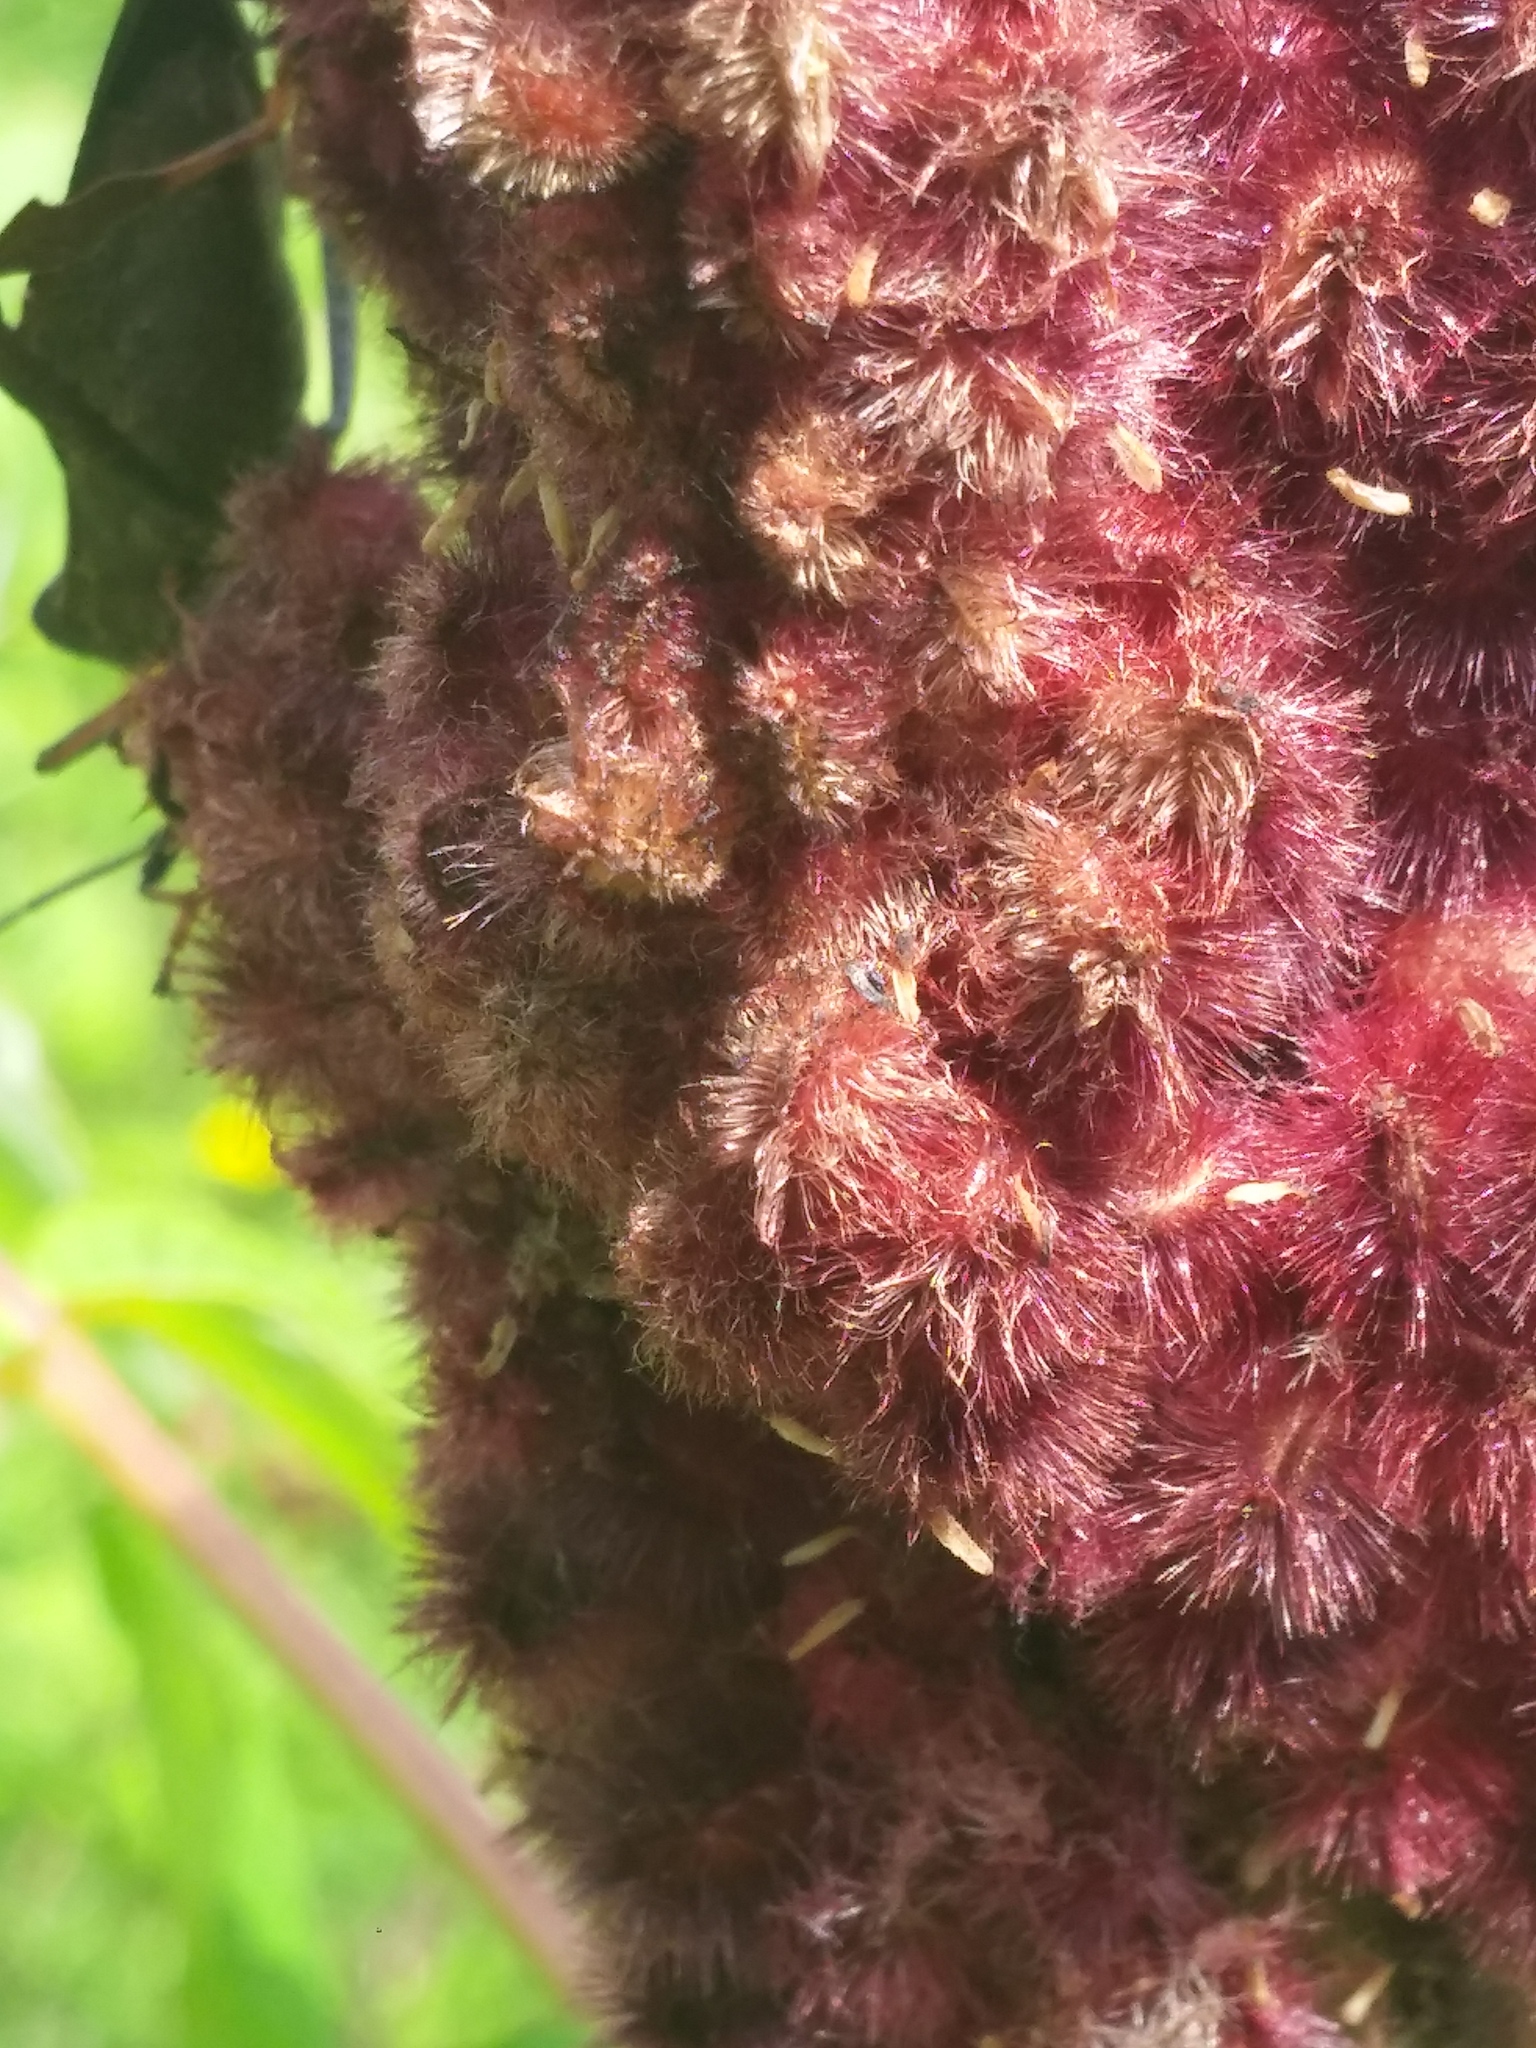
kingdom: Animalia
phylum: Arthropoda
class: Insecta
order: Hemiptera
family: Coreidae
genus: Acanthocephala
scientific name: Acanthocephala terminalis
